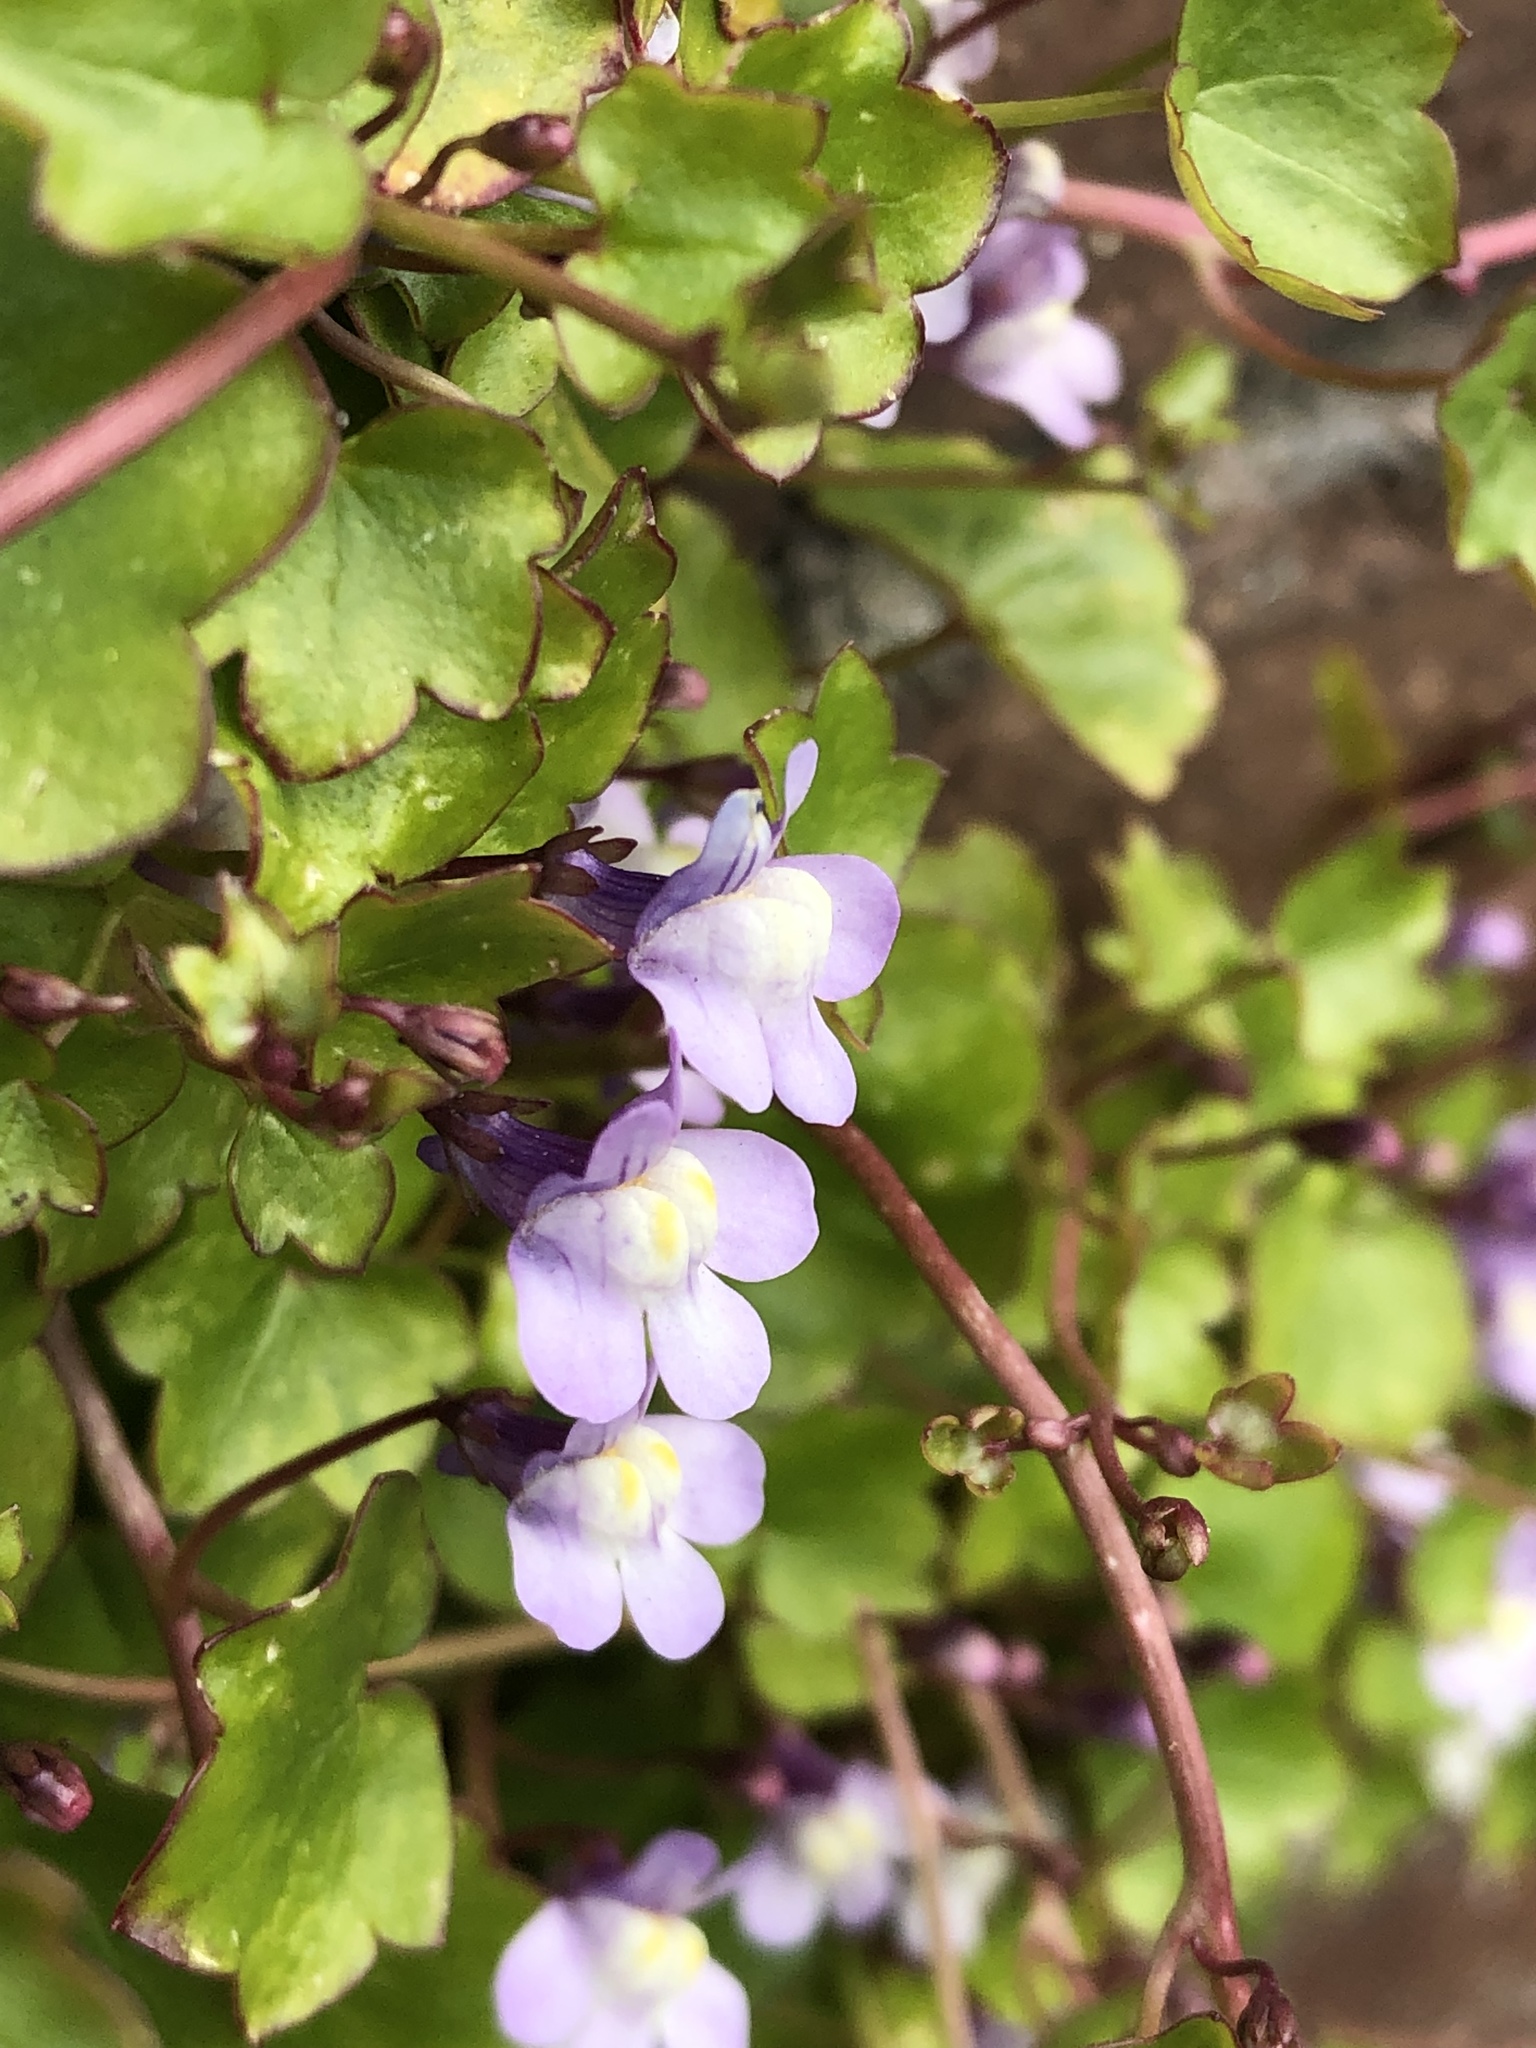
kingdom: Plantae
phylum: Tracheophyta
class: Magnoliopsida
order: Lamiales
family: Plantaginaceae
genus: Cymbalaria
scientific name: Cymbalaria muralis
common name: Ivy-leaved toadflax
